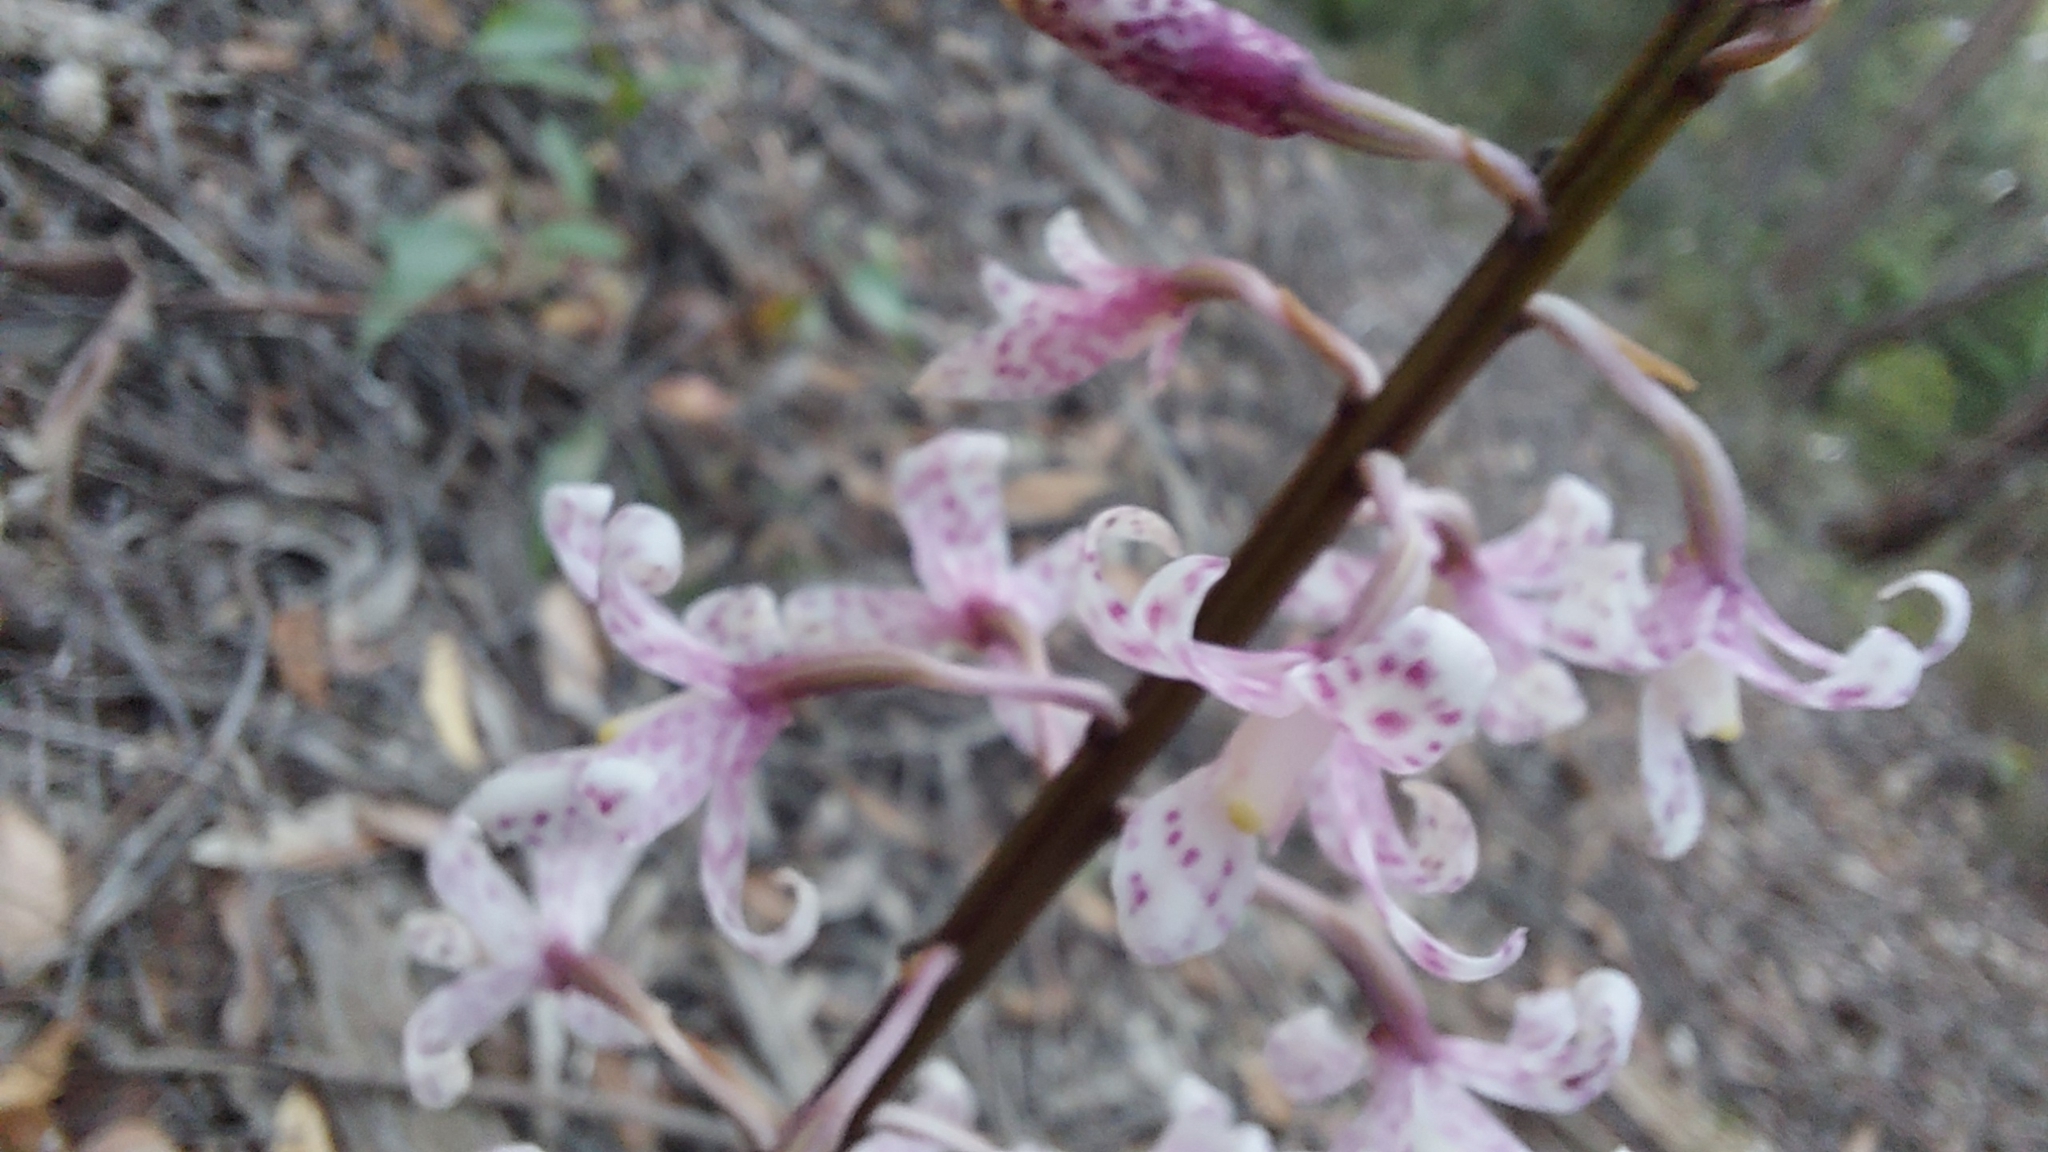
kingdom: Plantae
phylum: Tracheophyta
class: Liliopsida
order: Asparagales
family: Orchidaceae
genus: Dipodium
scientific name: Dipodium pardalinum
